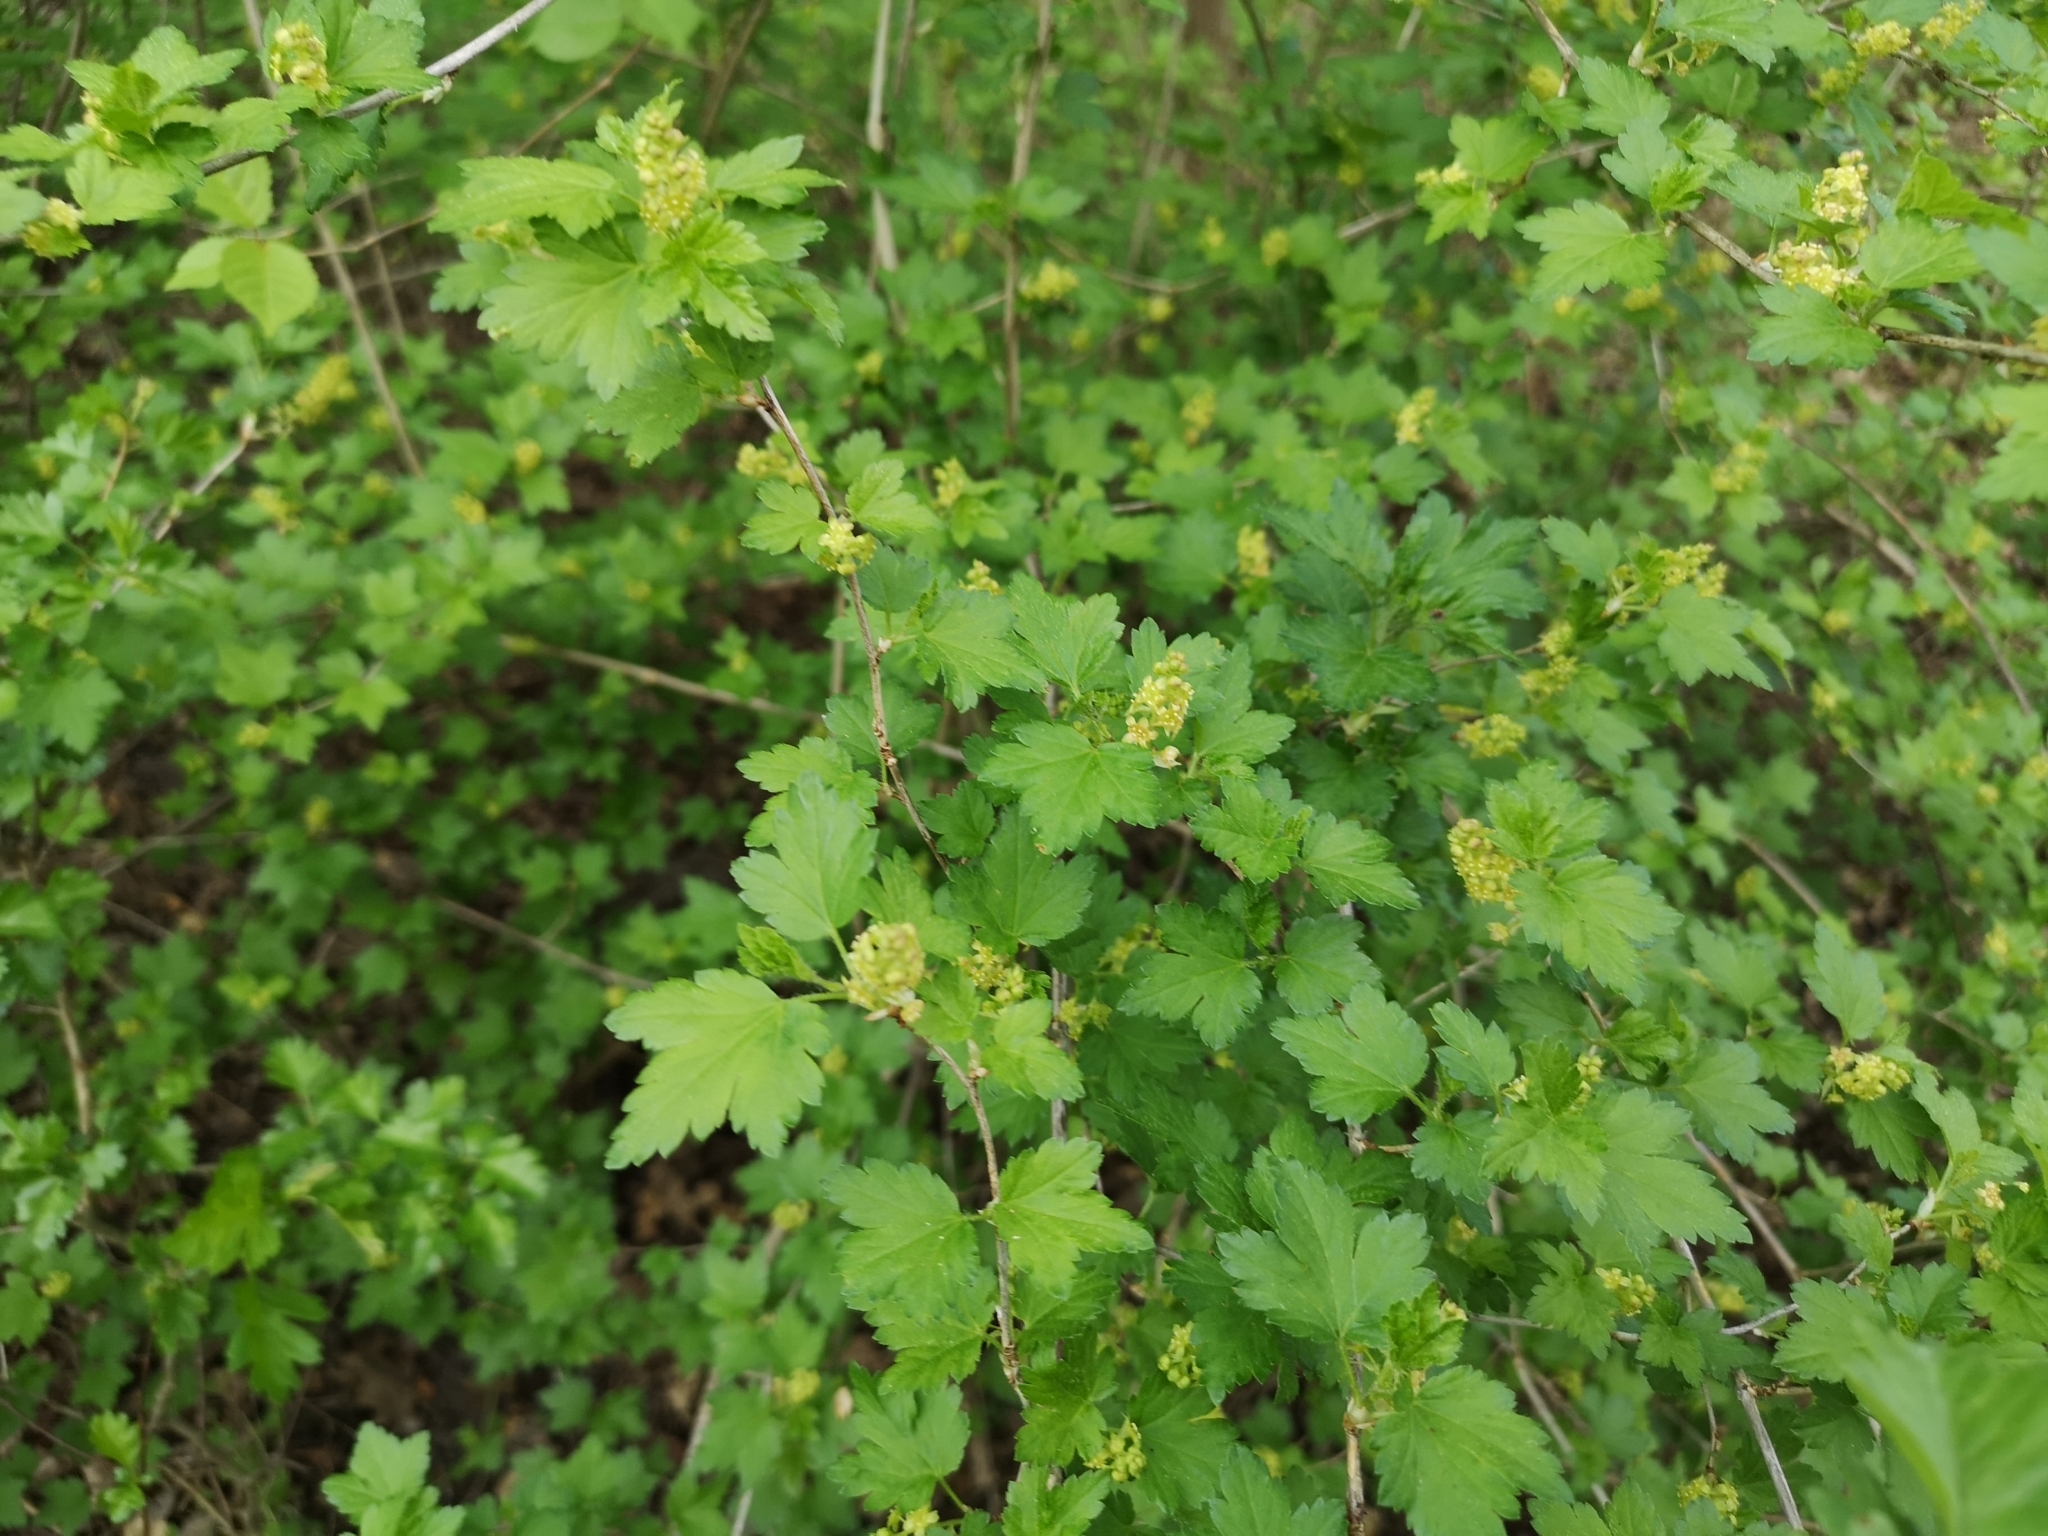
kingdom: Plantae
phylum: Tracheophyta
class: Magnoliopsida
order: Saxifragales
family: Grossulariaceae
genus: Ribes
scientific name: Ribes alpinum
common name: Alpine currant
